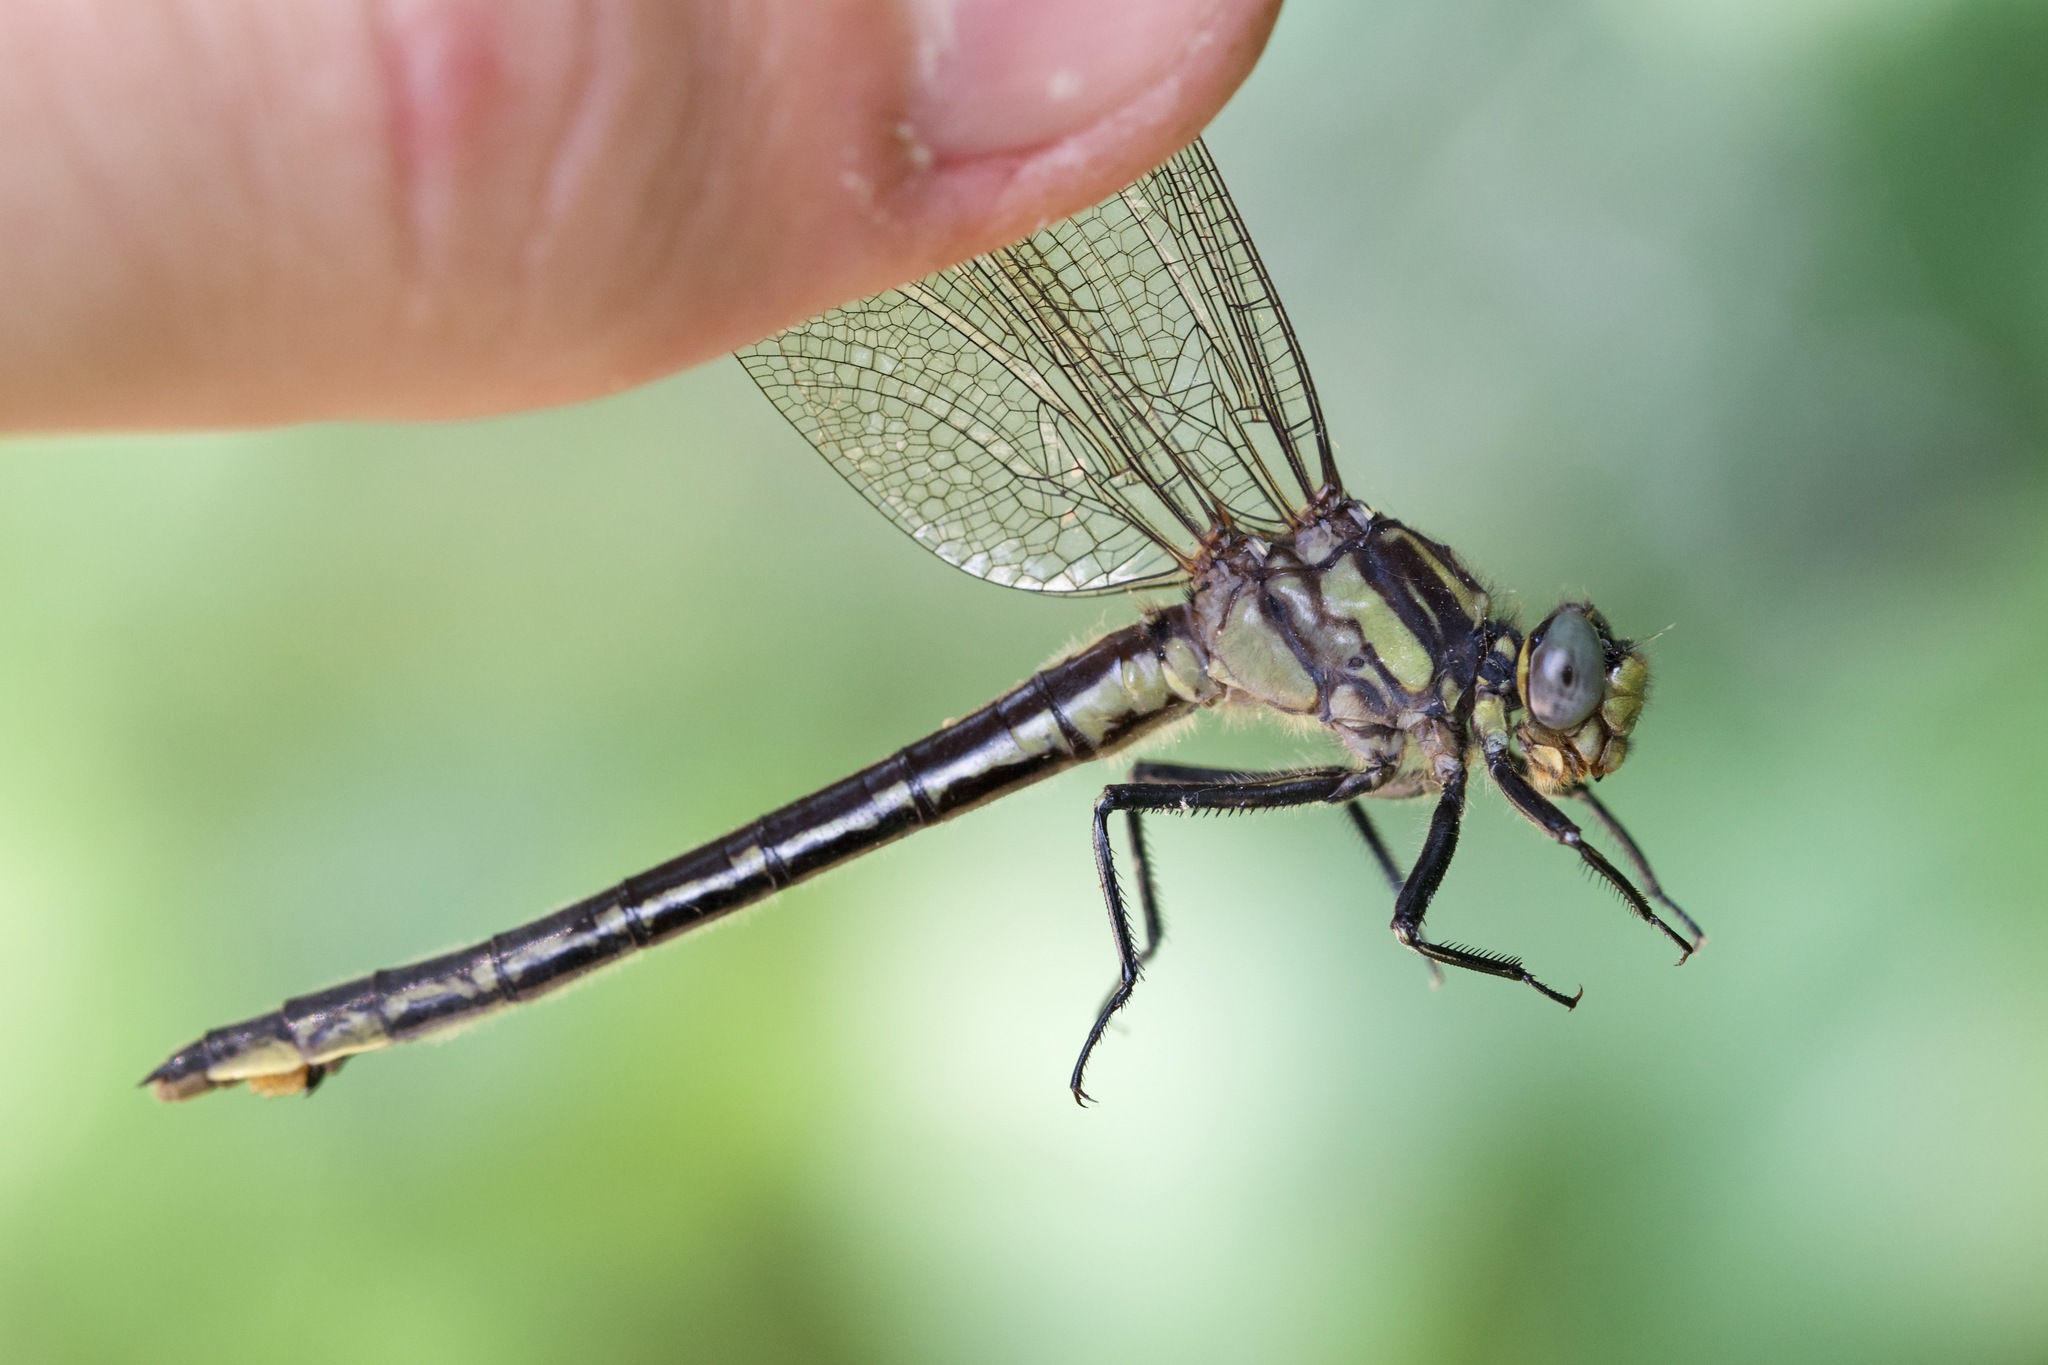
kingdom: Animalia
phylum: Arthropoda
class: Insecta
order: Odonata
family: Gomphidae
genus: Phanogomphus
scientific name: Phanogomphus descriptus
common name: Harpoon clubtail
